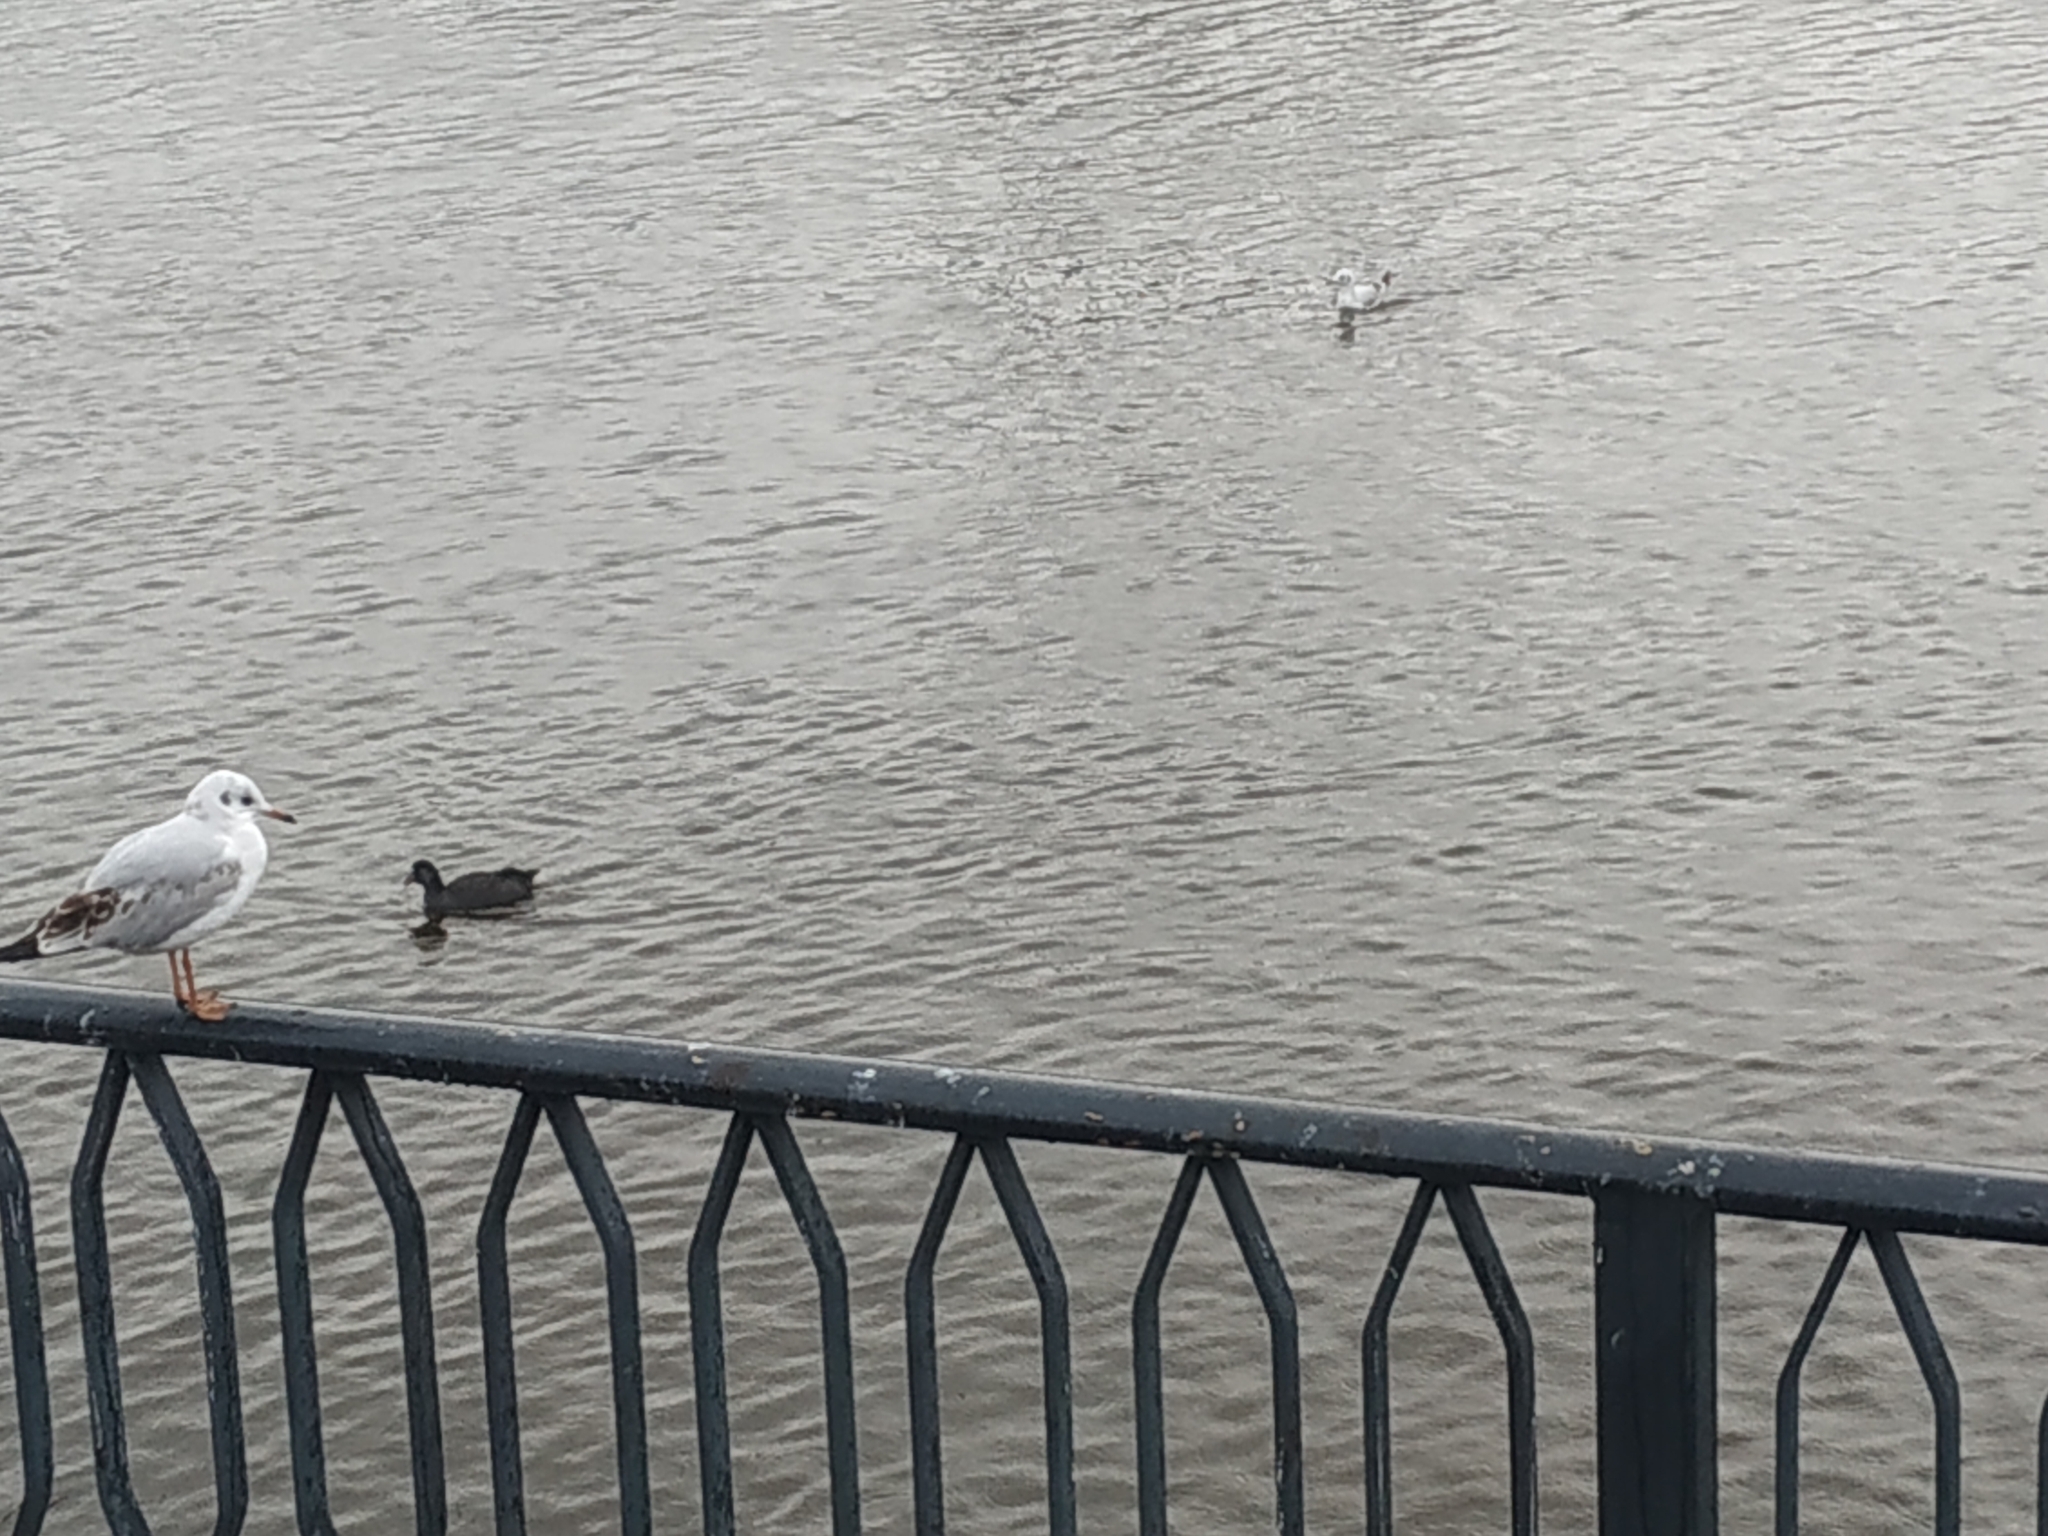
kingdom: Animalia
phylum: Chordata
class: Aves
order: Gruiformes
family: Rallidae
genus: Fulica
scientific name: Fulica atra
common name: Eurasian coot
